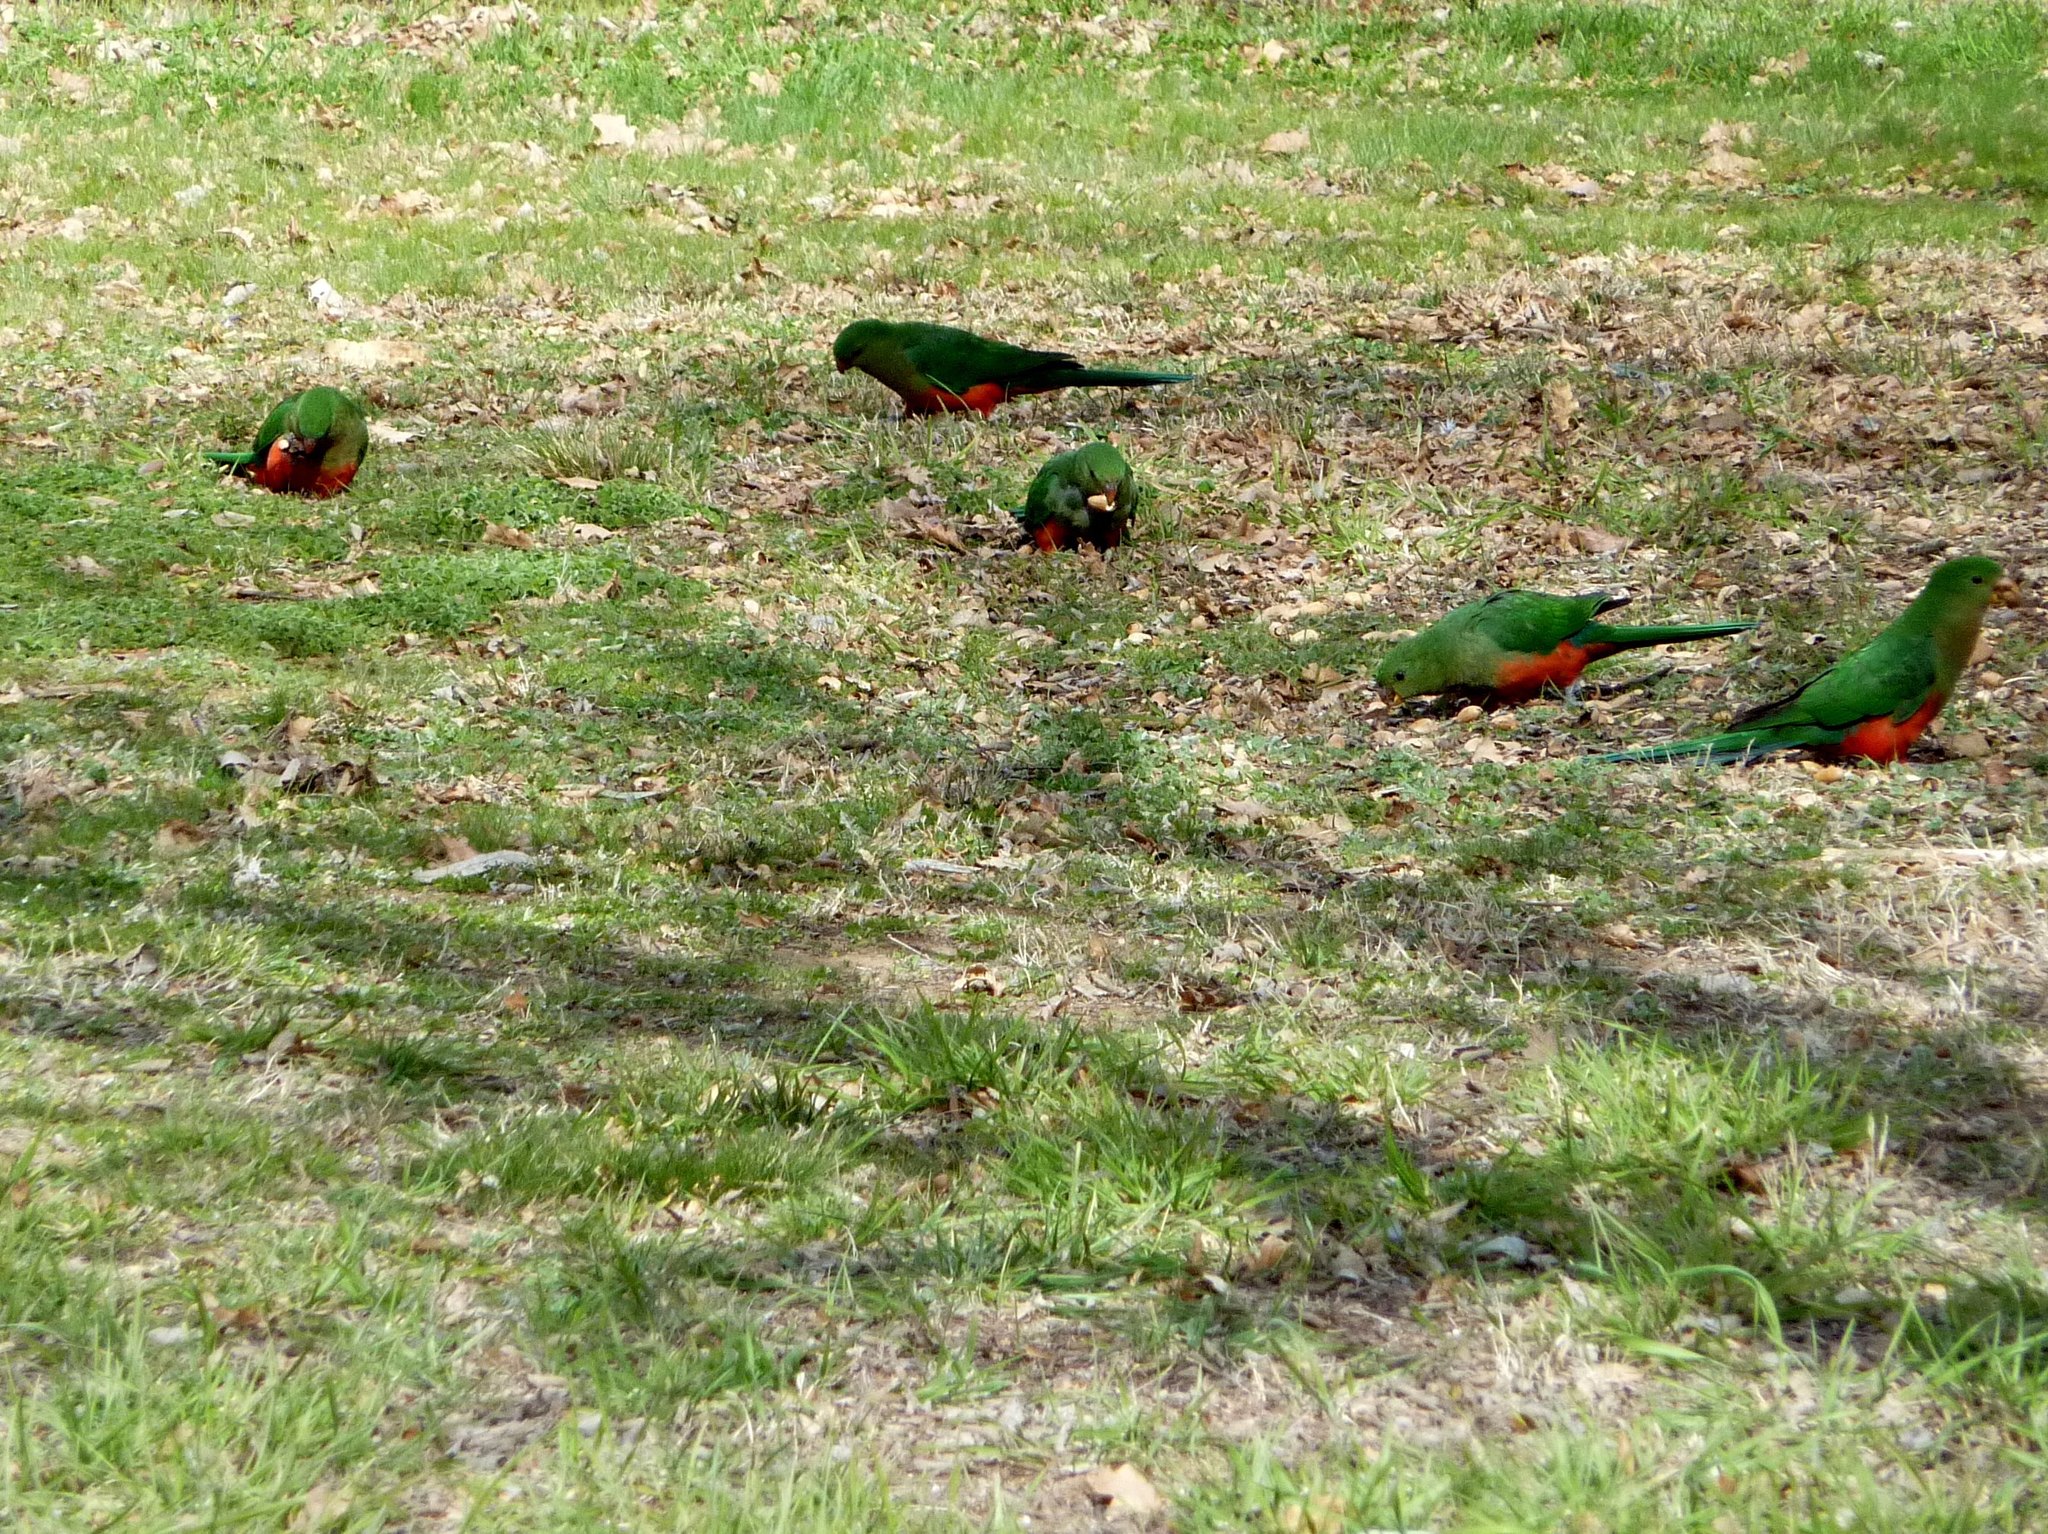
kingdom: Animalia
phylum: Chordata
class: Aves
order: Psittaciformes
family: Psittacidae
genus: Alisterus
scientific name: Alisterus scapularis
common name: Australian king parrot
